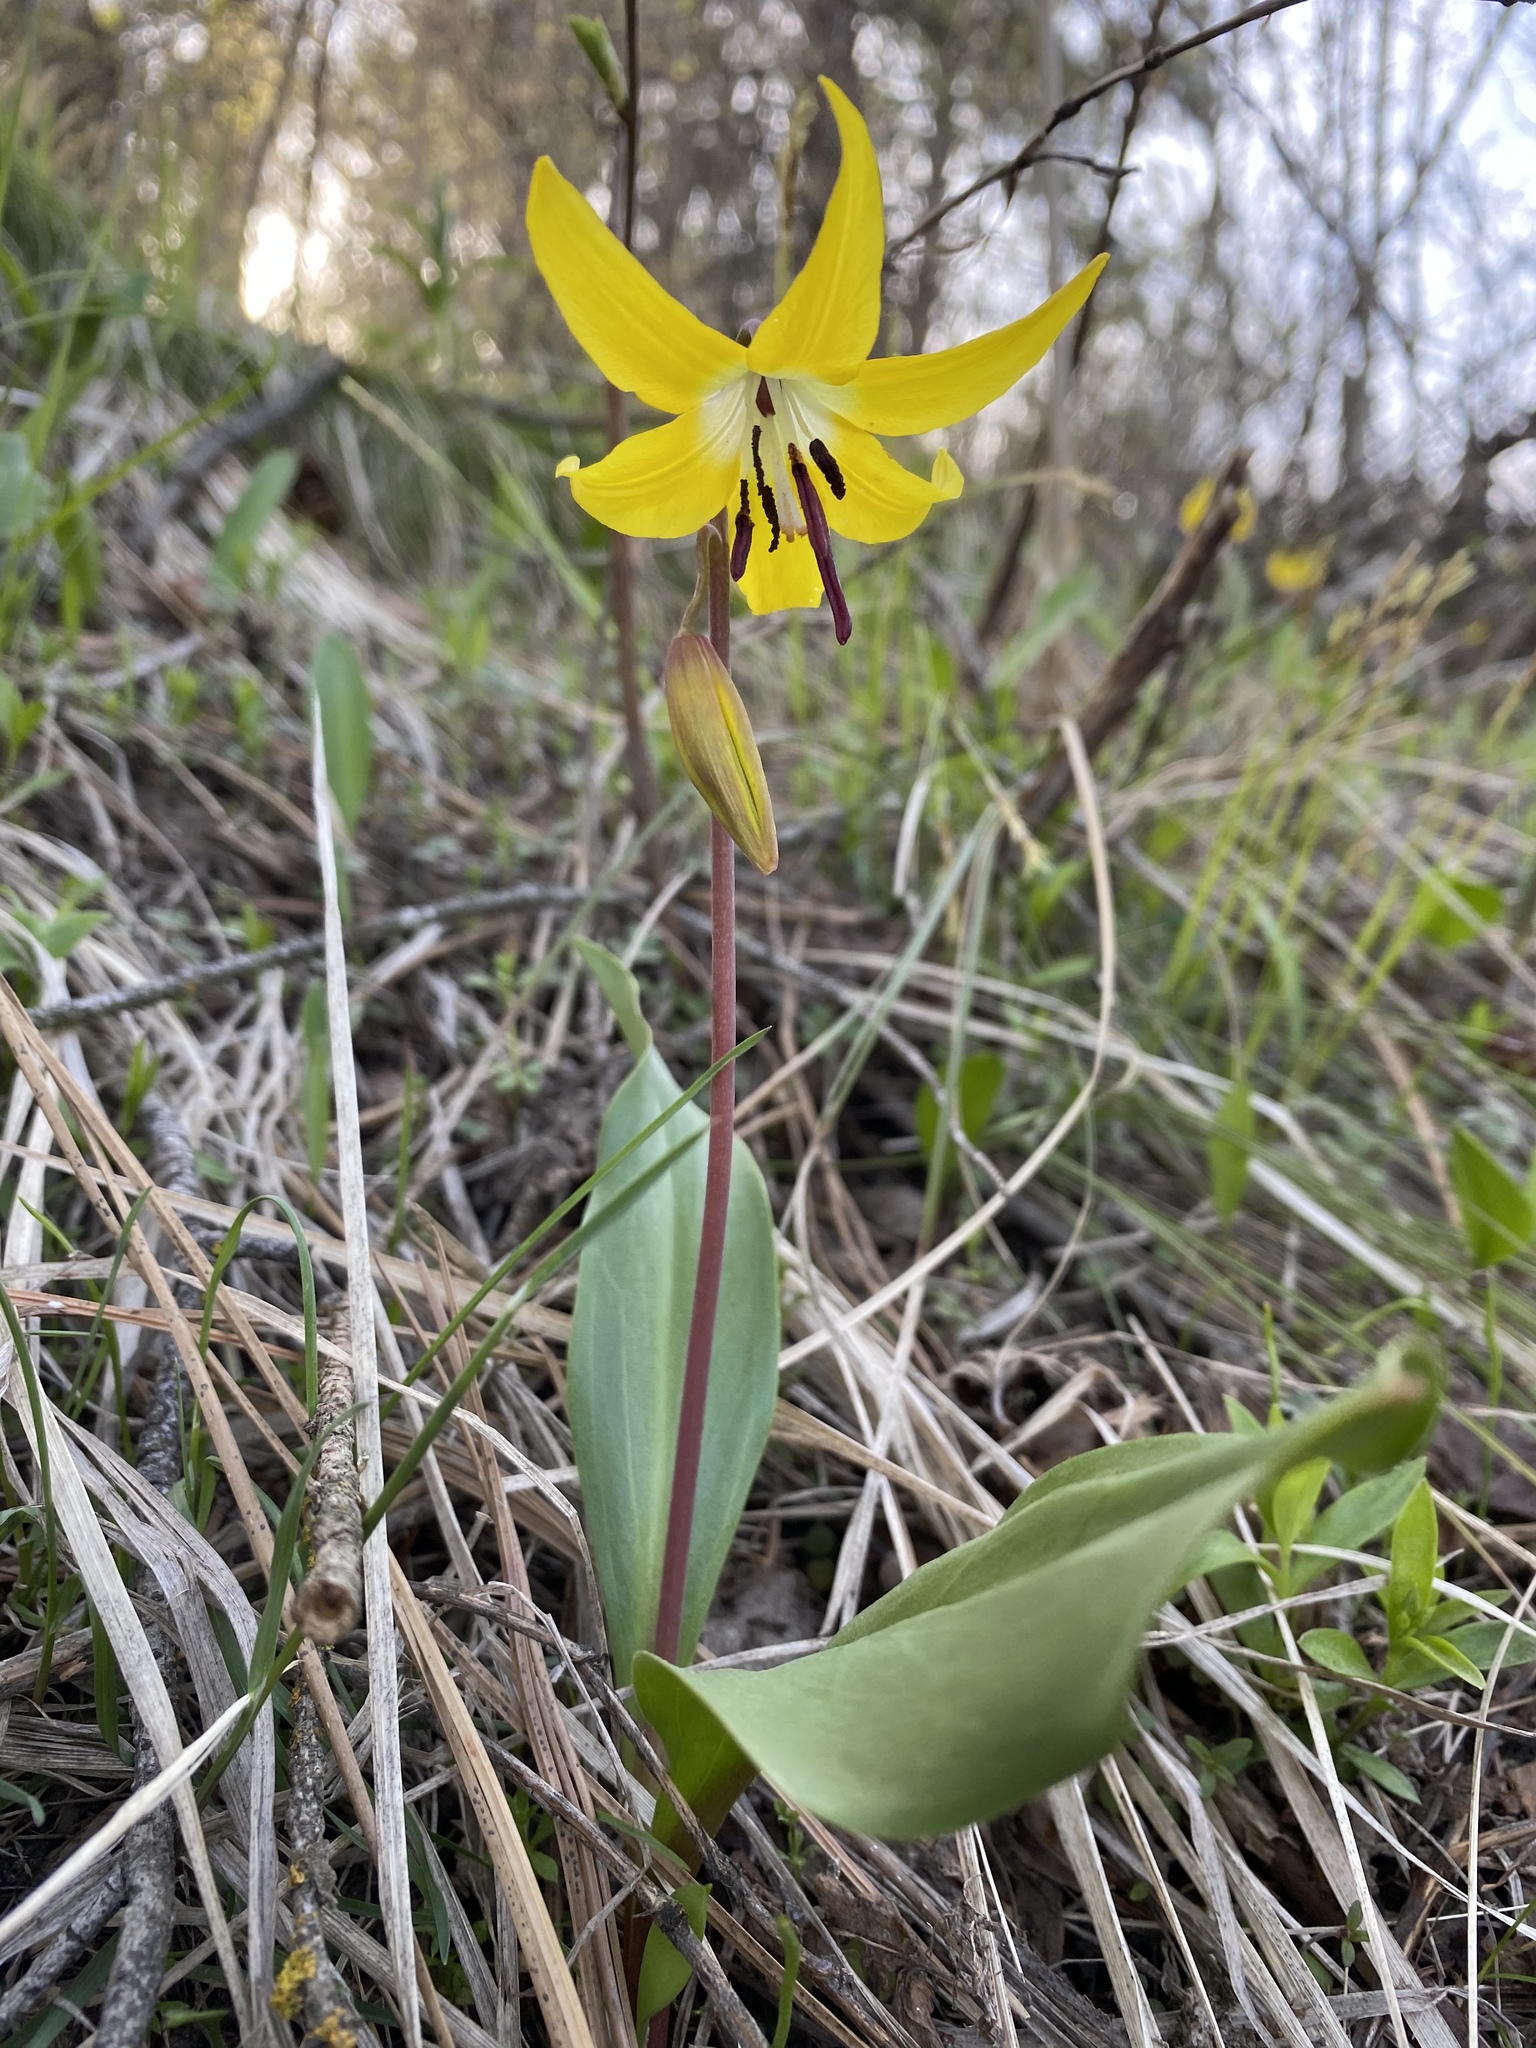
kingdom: Plantae
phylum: Tracheophyta
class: Liliopsida
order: Liliales
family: Liliaceae
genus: Erythronium
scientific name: Erythronium grandiflorum
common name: Avalanche-lily
